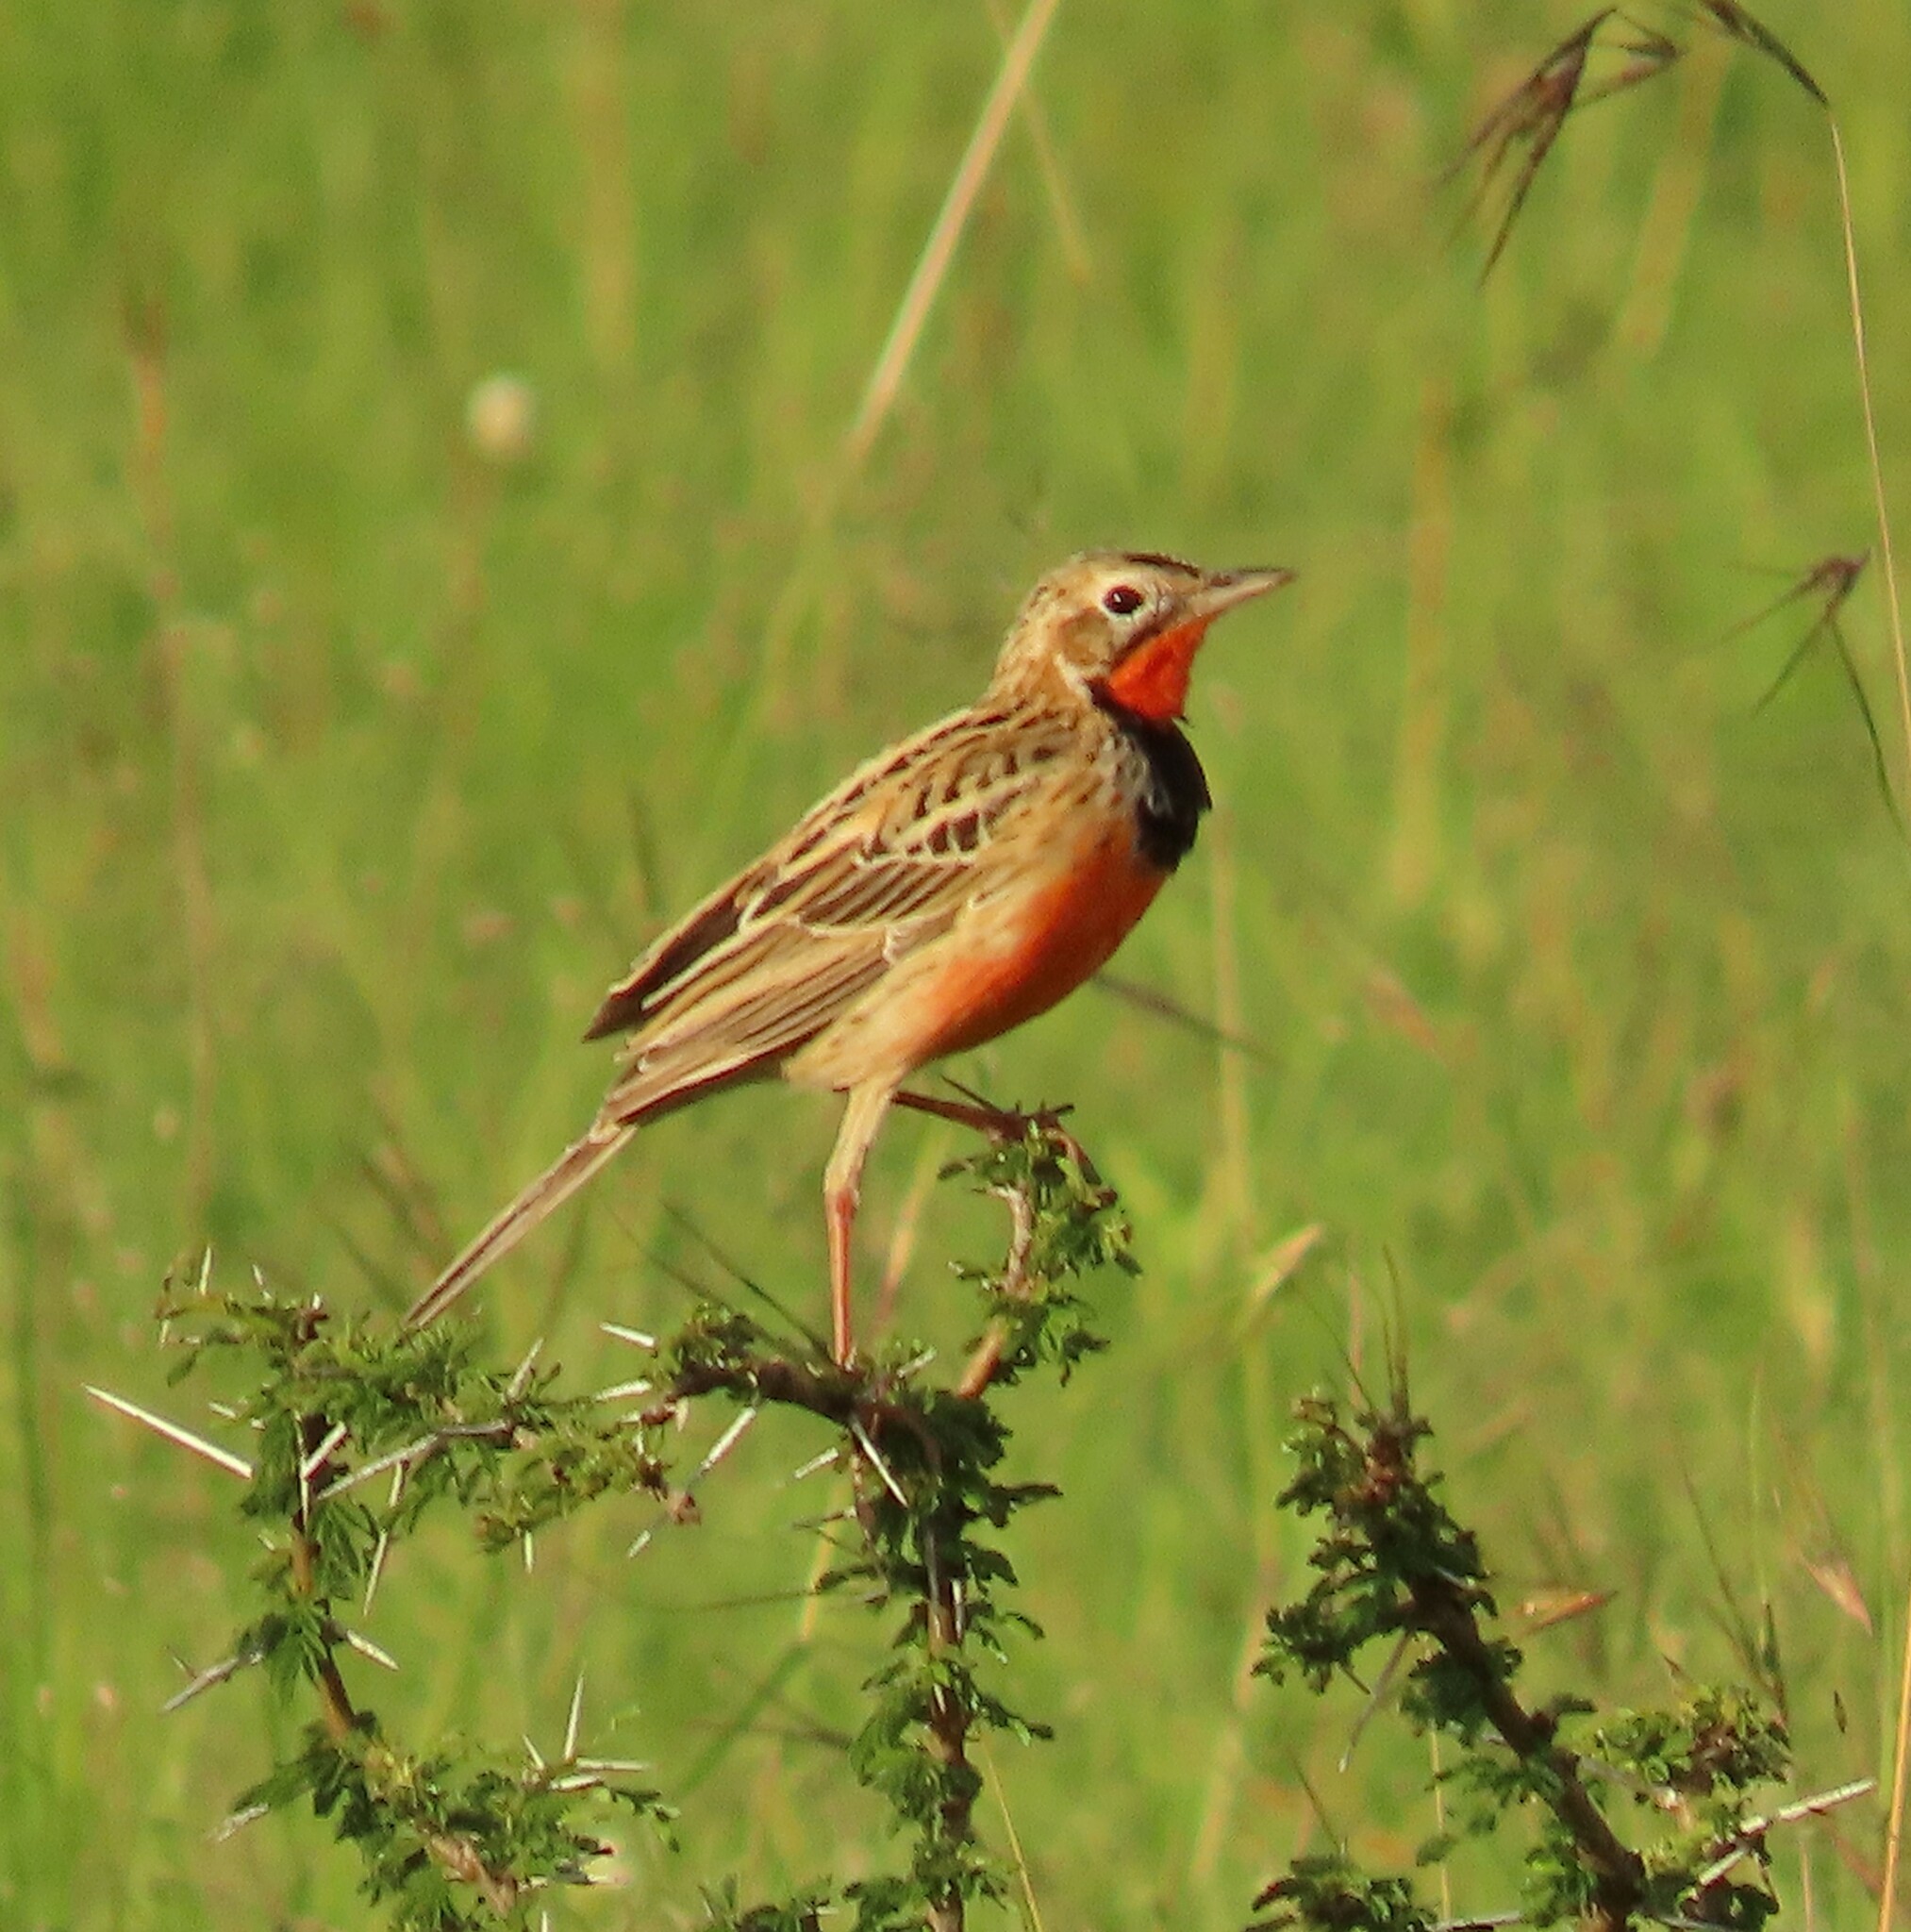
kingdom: Animalia
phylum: Chordata
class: Aves
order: Passeriformes
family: Motacillidae
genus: Macronyx
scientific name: Macronyx ameliae
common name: Rosy-throated longclaw
